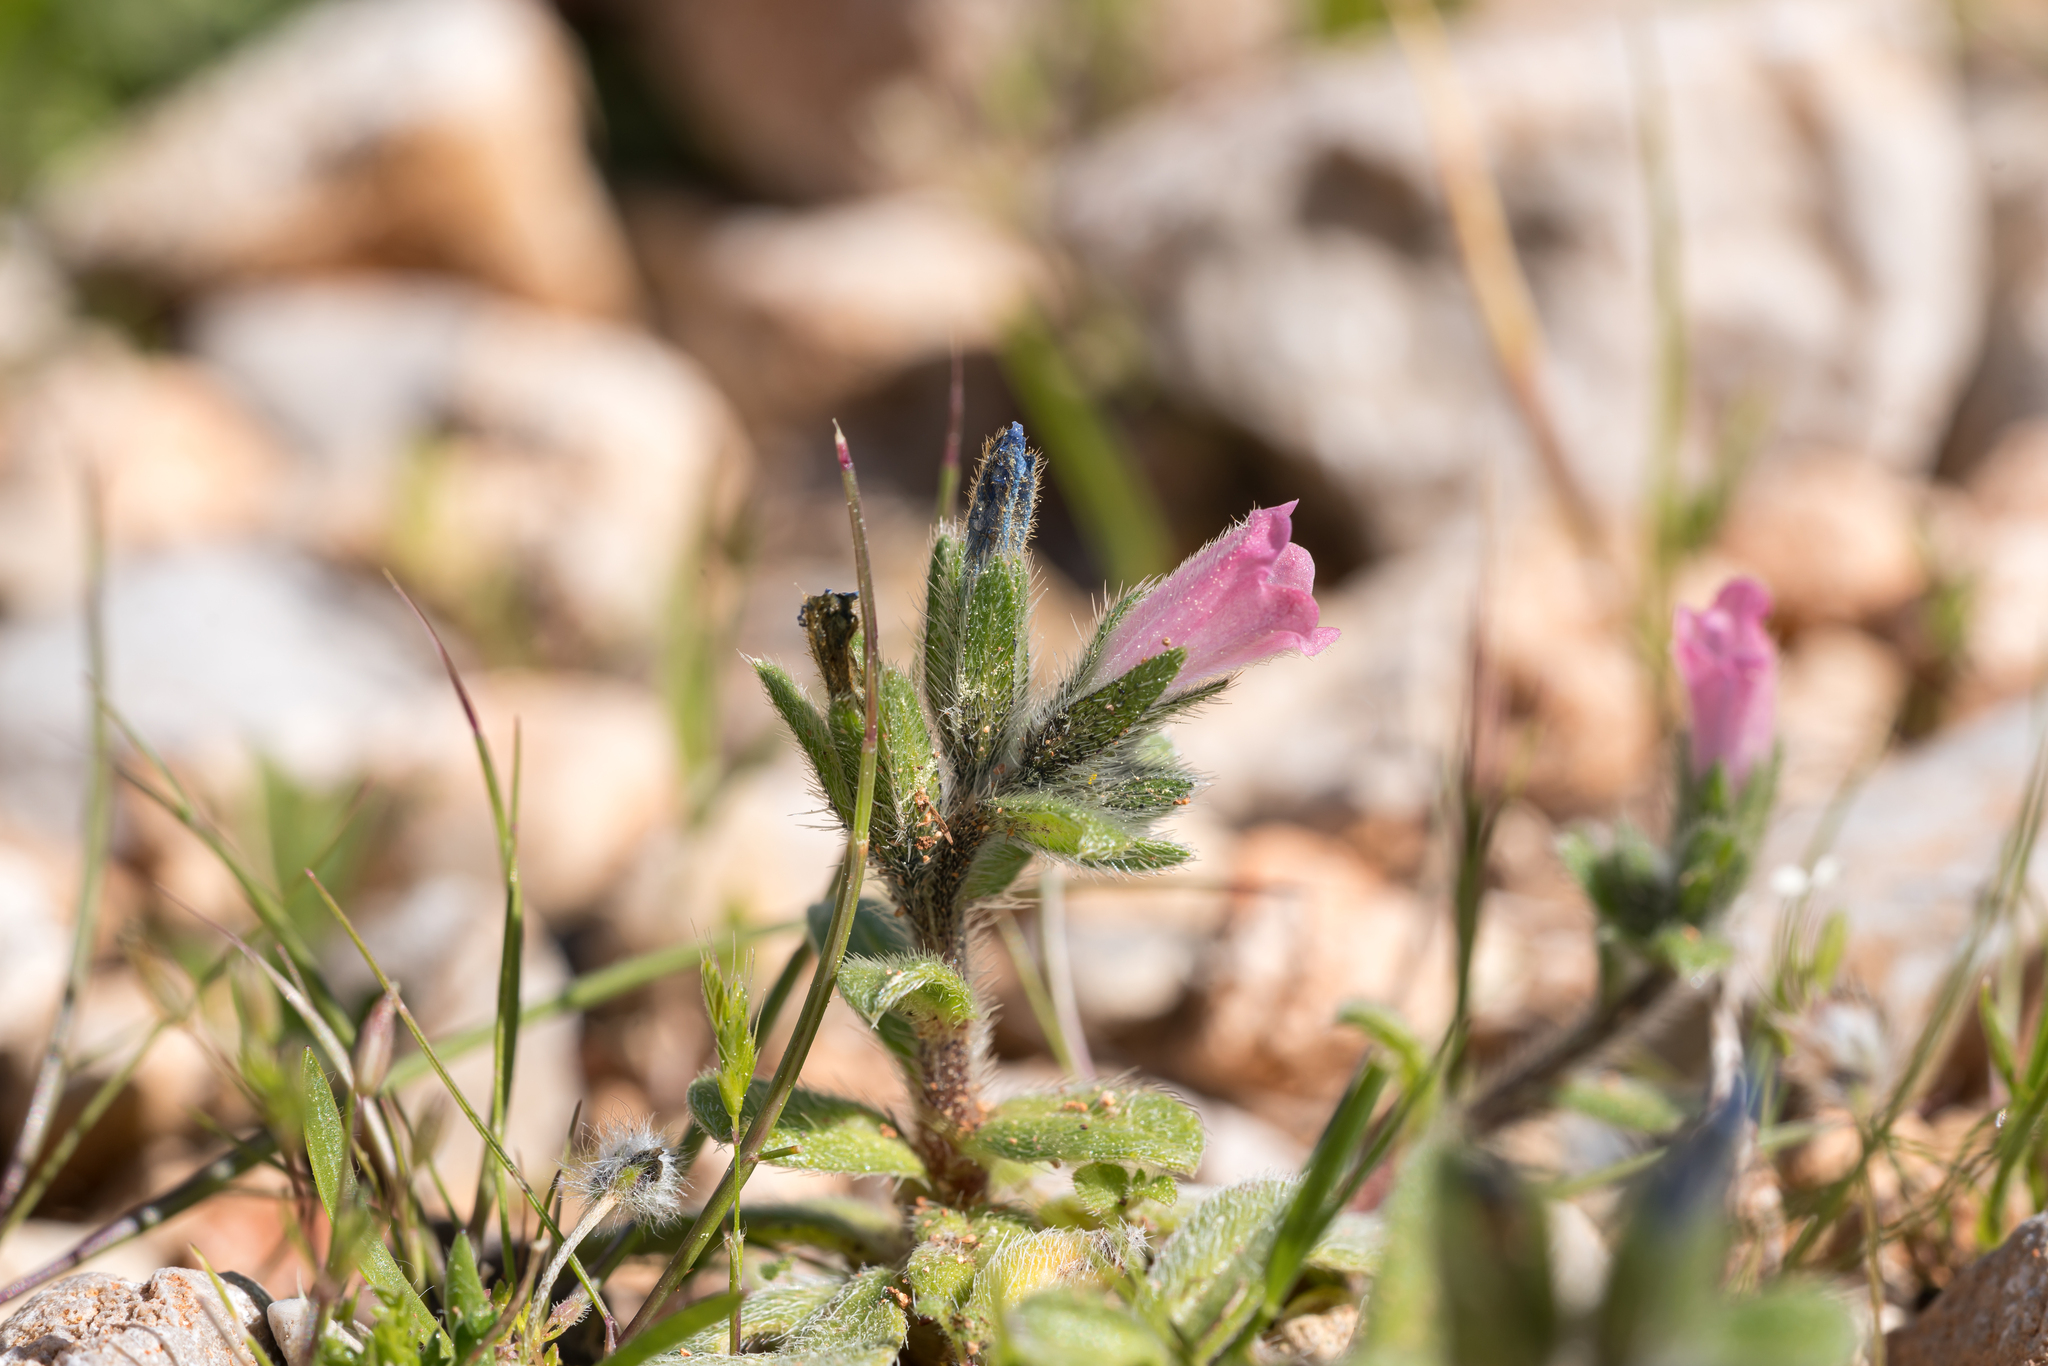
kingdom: Plantae
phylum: Tracheophyta
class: Magnoliopsida
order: Boraginales
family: Boraginaceae
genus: Echium
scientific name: Echium parviflorum
